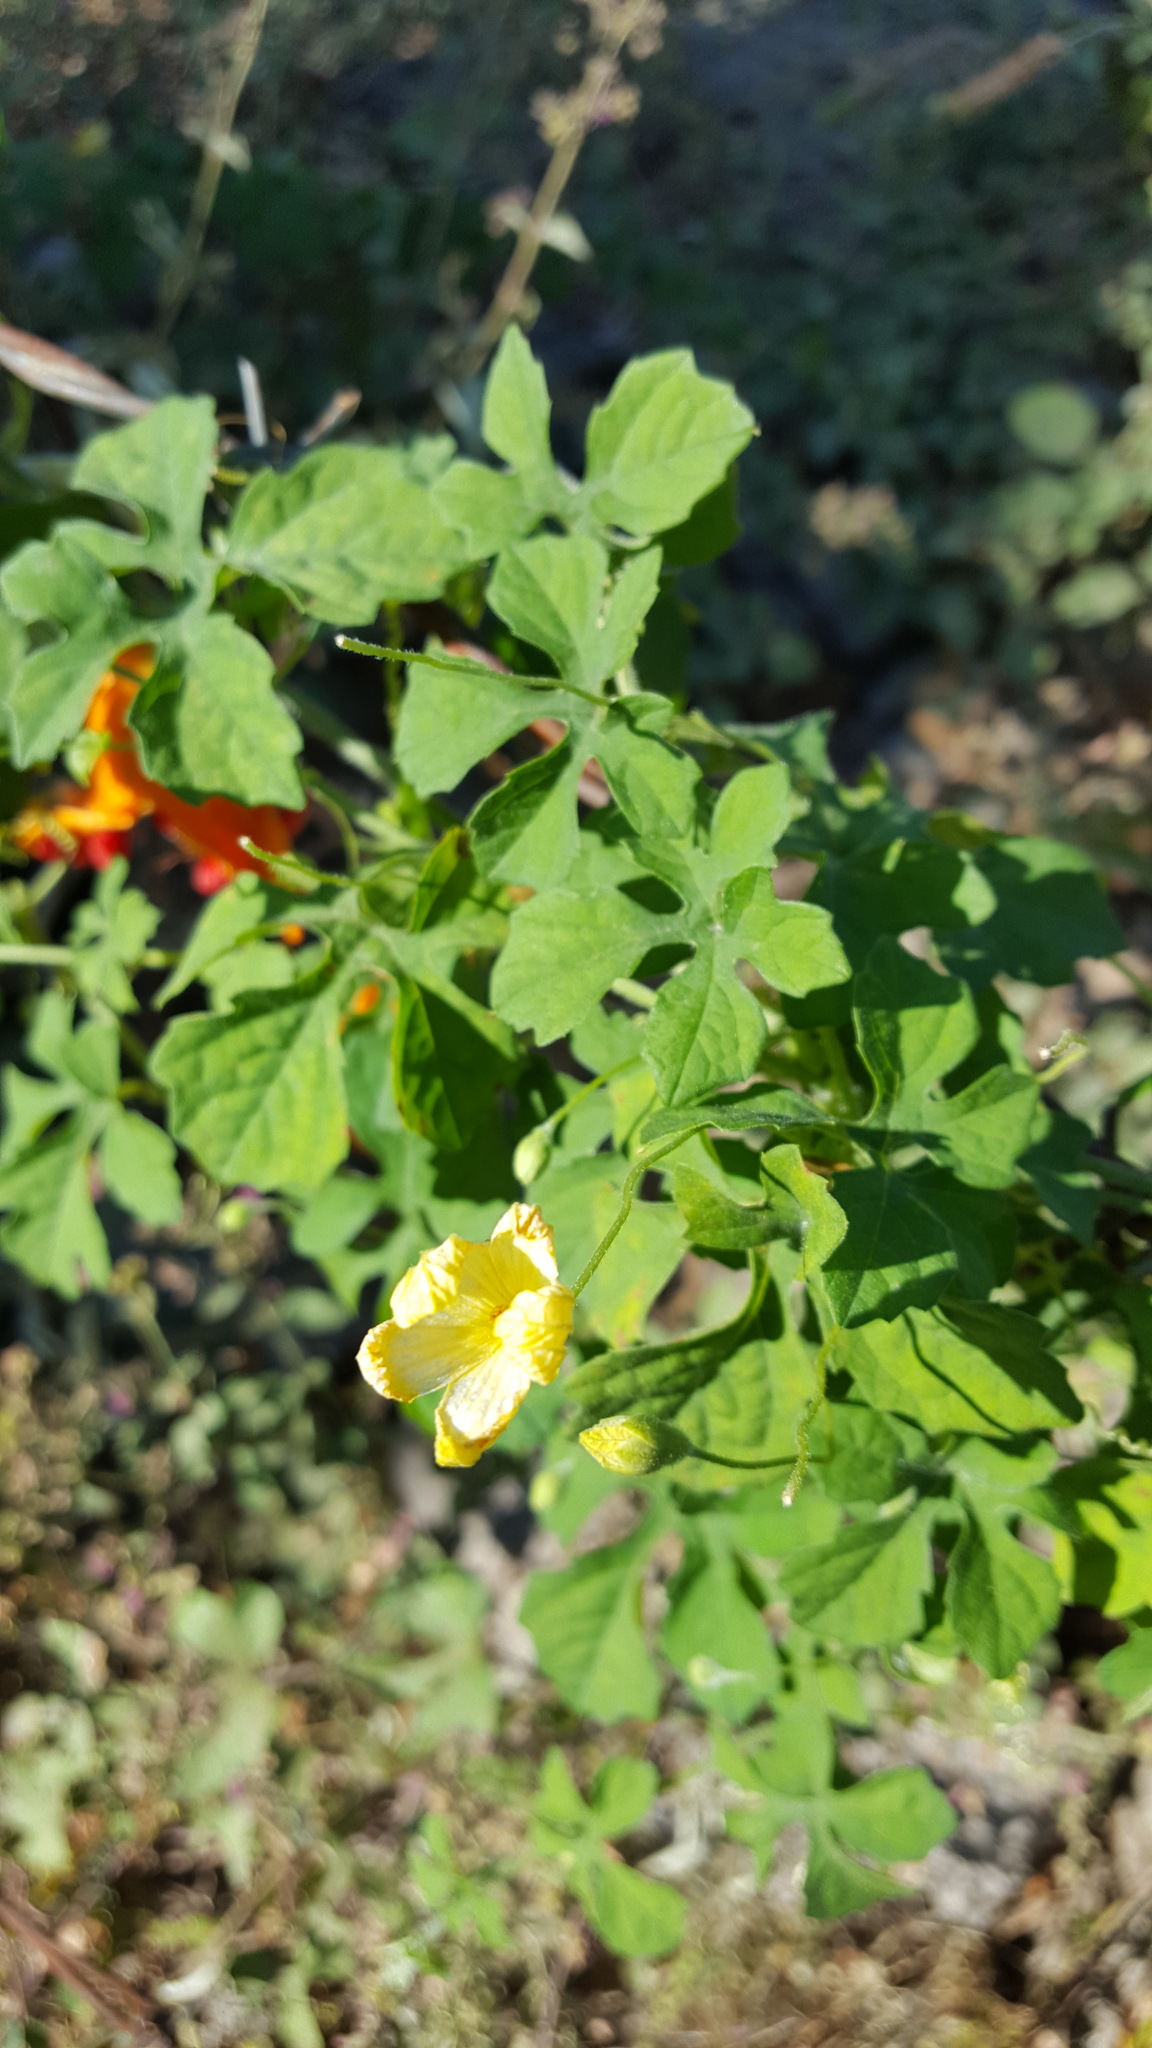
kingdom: Plantae
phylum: Tracheophyta
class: Magnoliopsida
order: Cucurbitales
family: Cucurbitaceae
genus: Momordica
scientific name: Momordica charantia
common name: Balsampear
